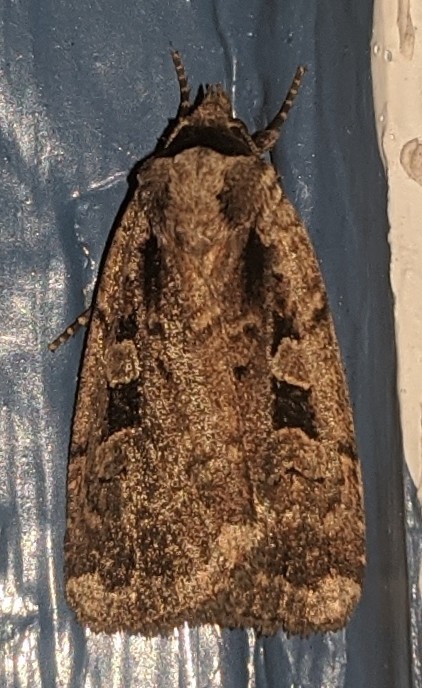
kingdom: Animalia
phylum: Arthropoda
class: Insecta
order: Lepidoptera
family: Noctuidae
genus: Eueretagrotis
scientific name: Eueretagrotis perattentus
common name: Two-spot dart moth
